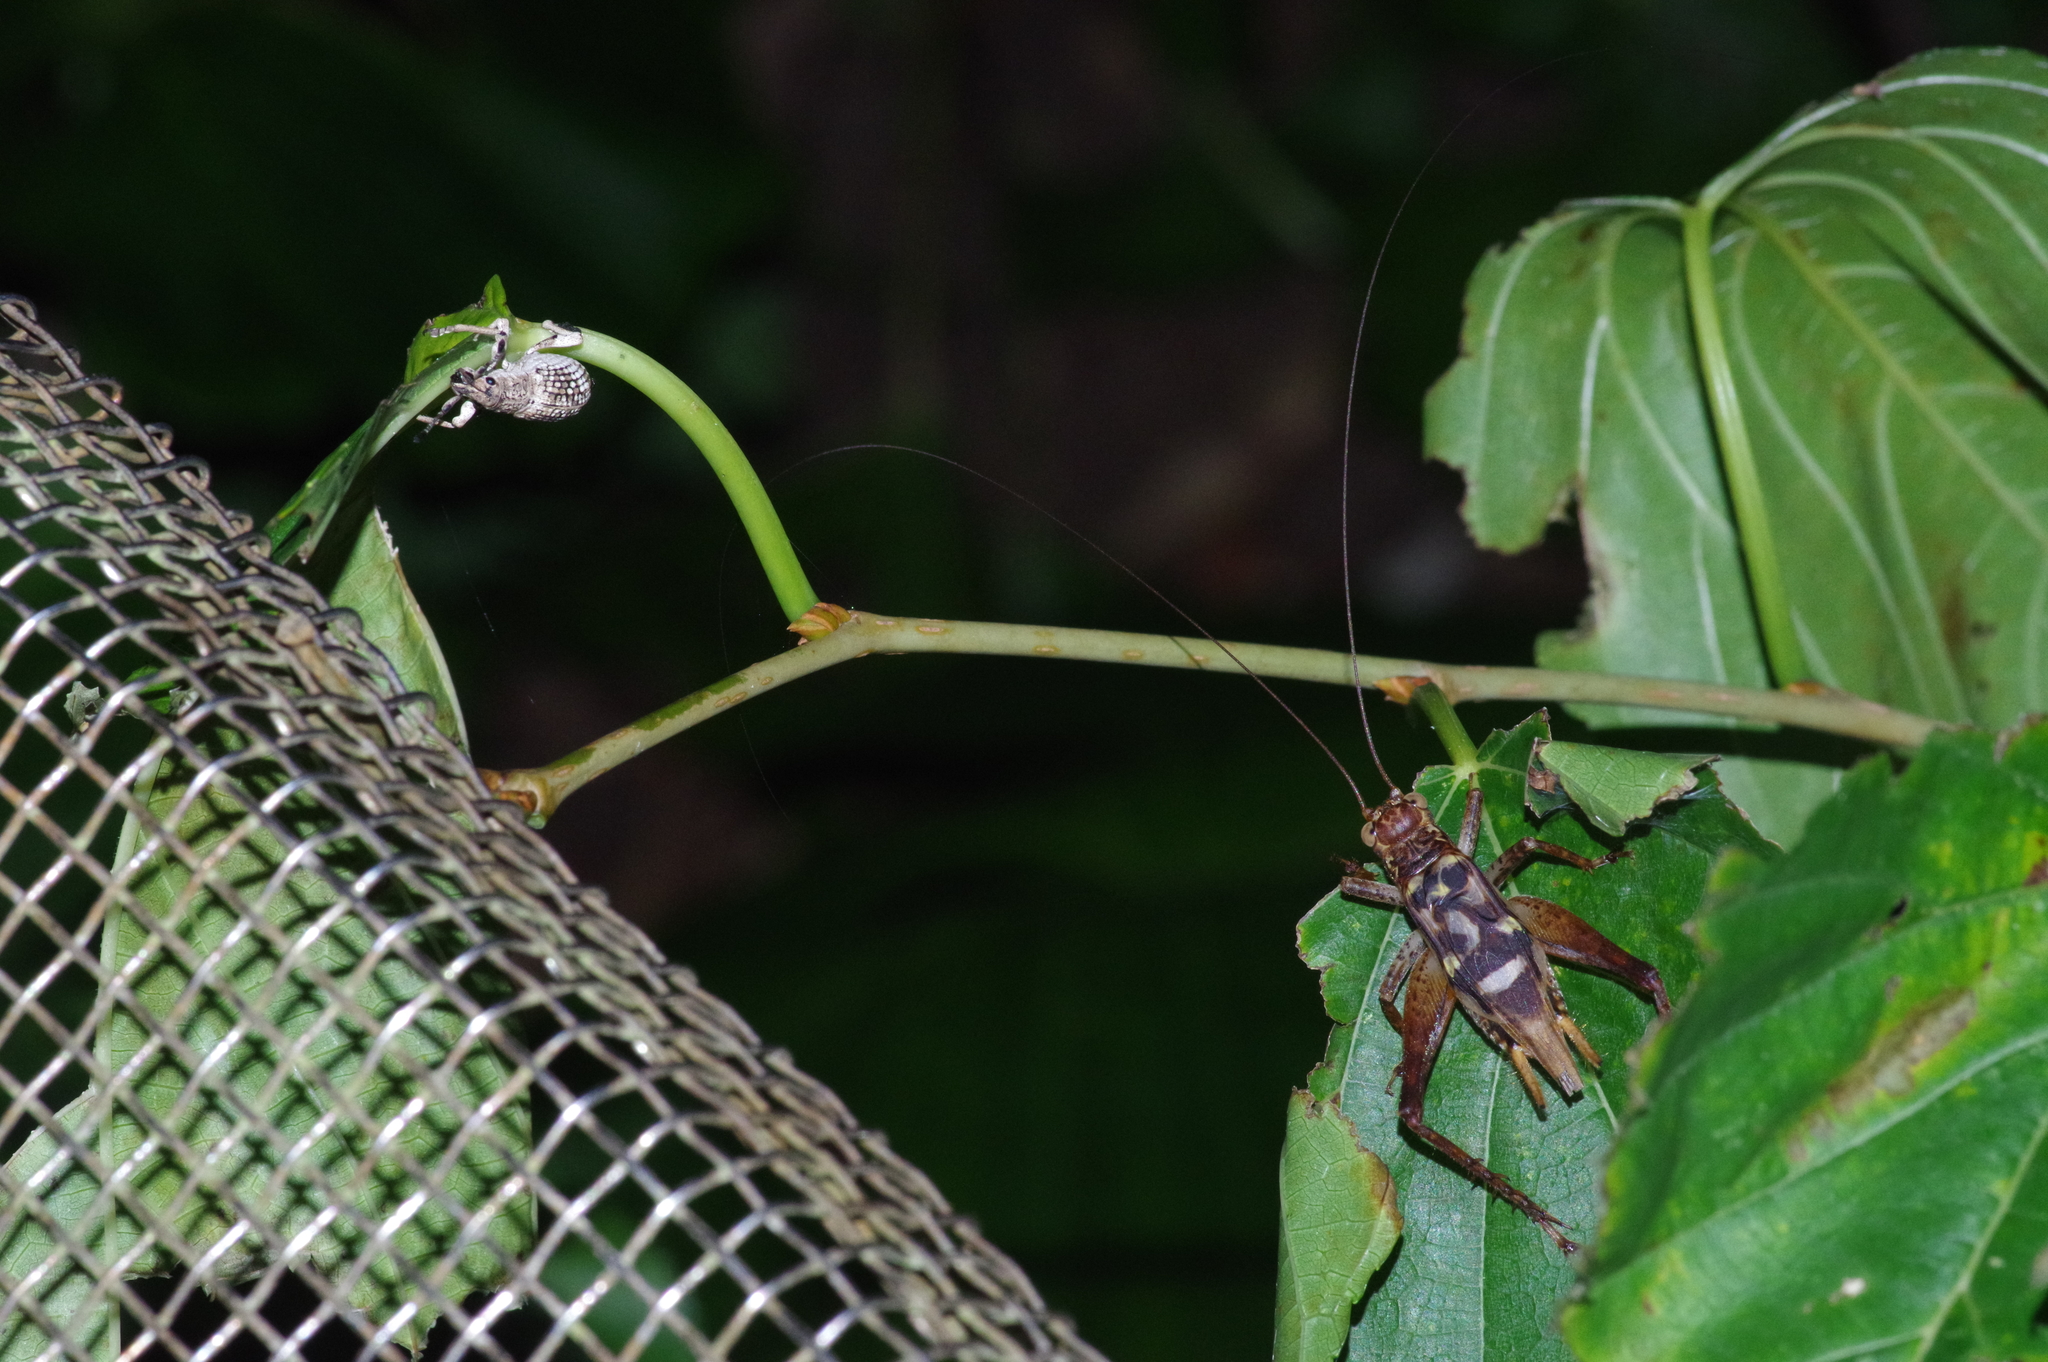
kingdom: Animalia
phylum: Arthropoda
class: Insecta
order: Coleoptera
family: Curculionidae
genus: Episomus
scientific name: Episomus mori
